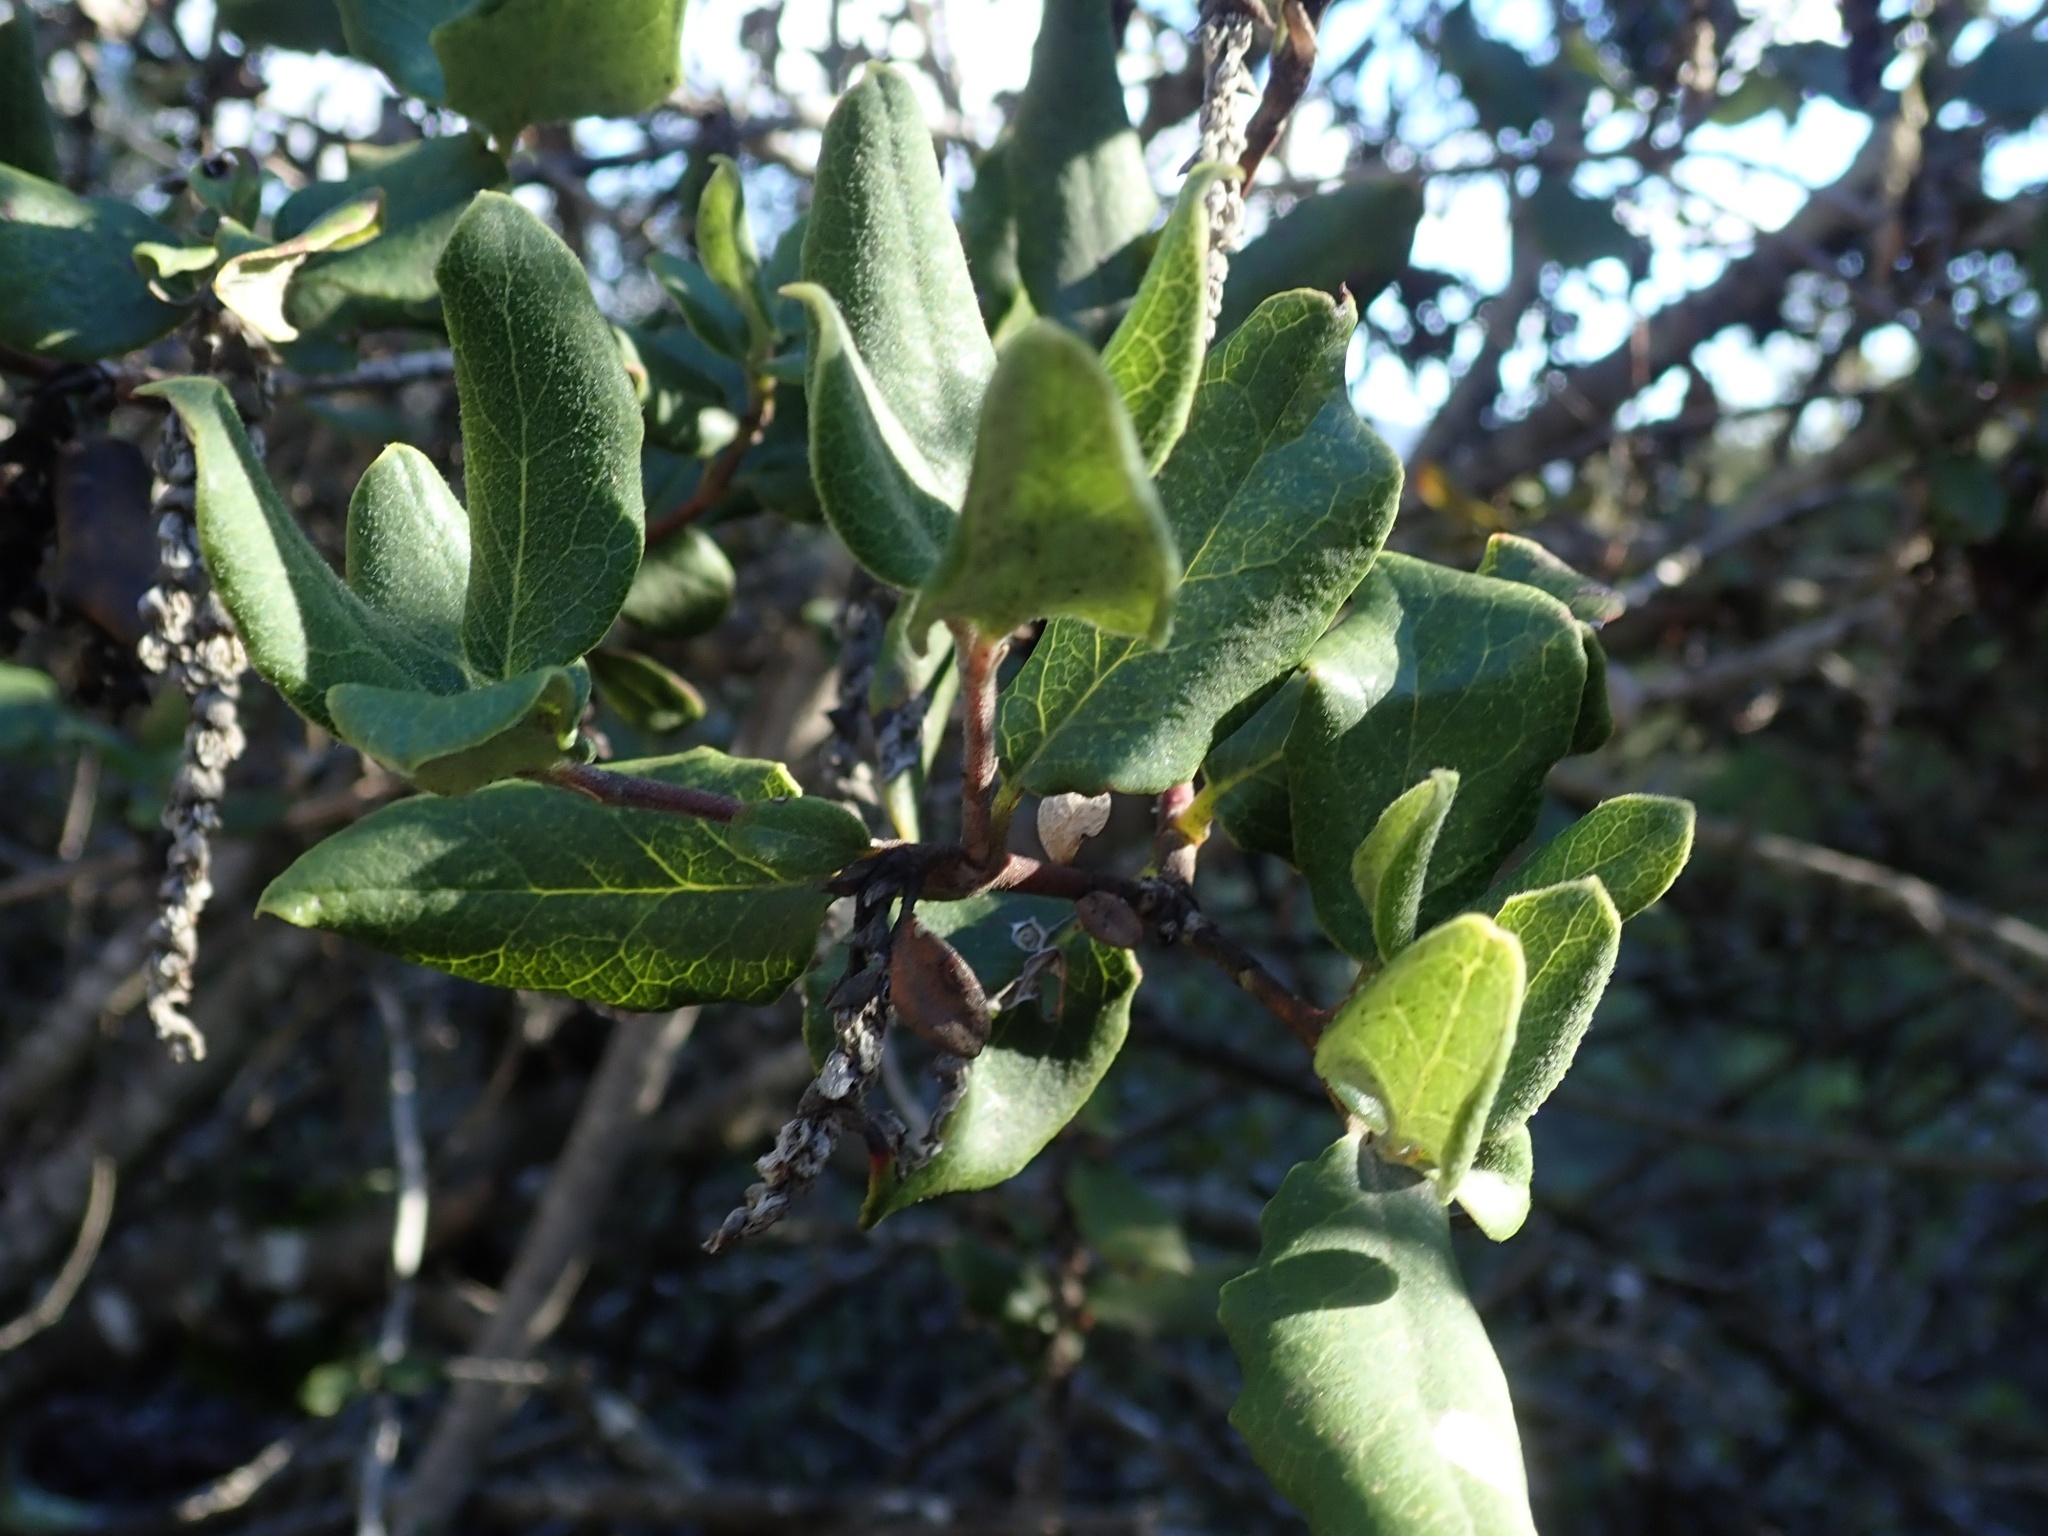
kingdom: Plantae
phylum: Tracheophyta
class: Magnoliopsida
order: Garryales
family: Garryaceae
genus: Garrya
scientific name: Garrya elliptica
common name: Silk-tassel
